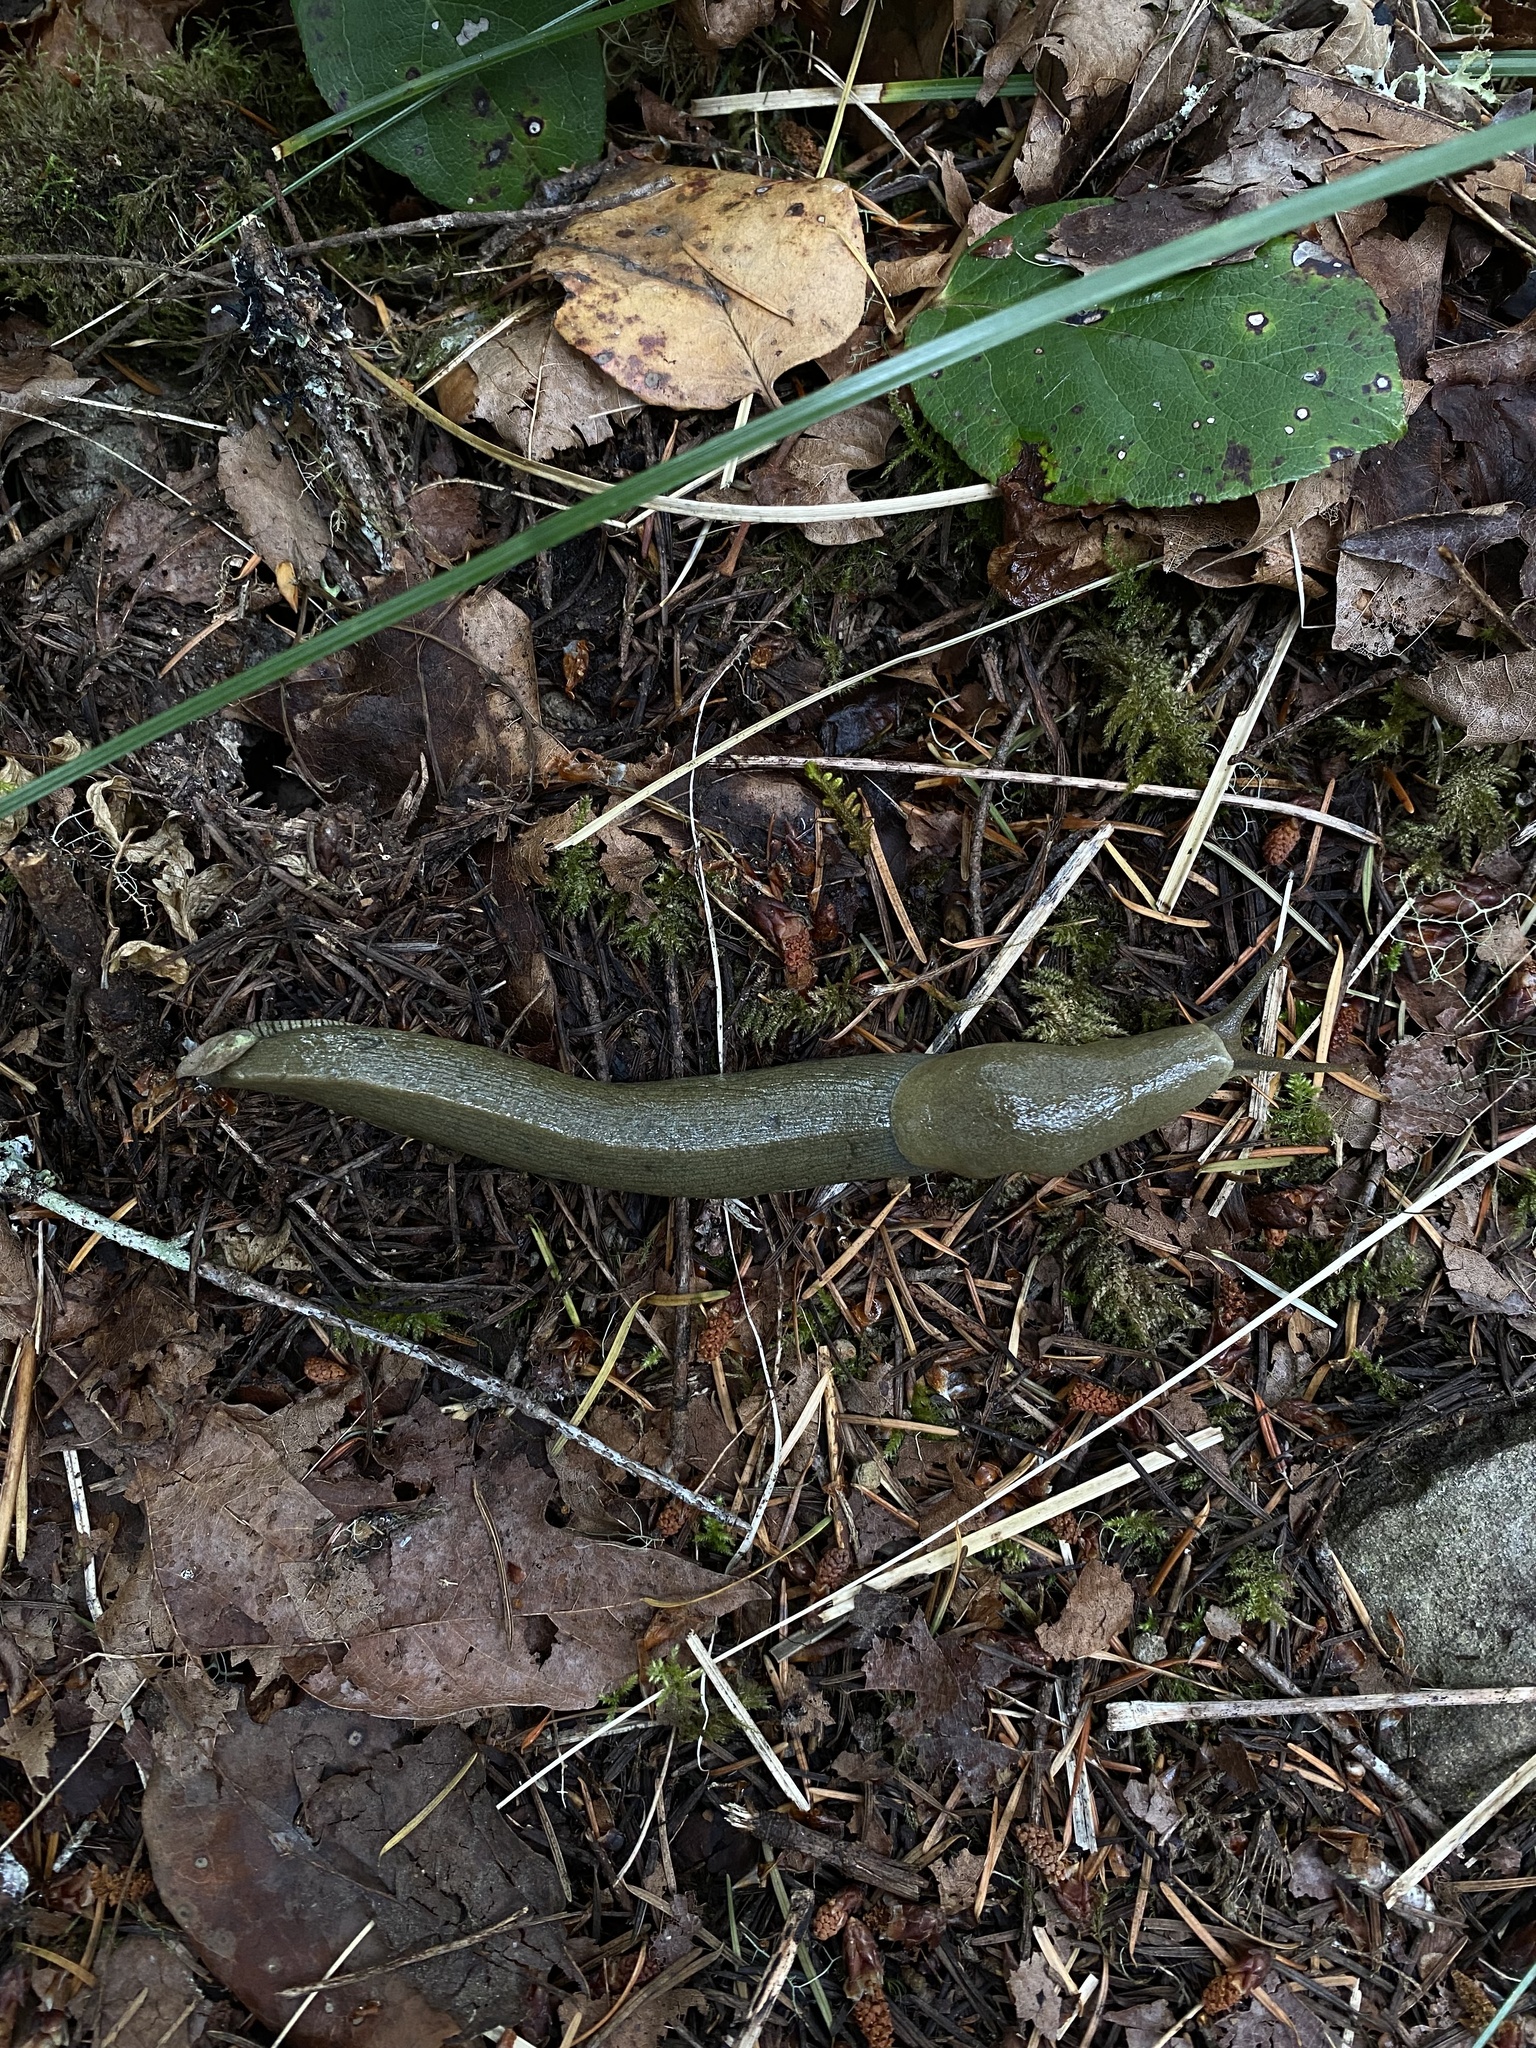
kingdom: Animalia
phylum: Mollusca
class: Gastropoda
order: Stylommatophora
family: Ariolimacidae
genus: Ariolimax
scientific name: Ariolimax columbianus
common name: Pacific banana slug
